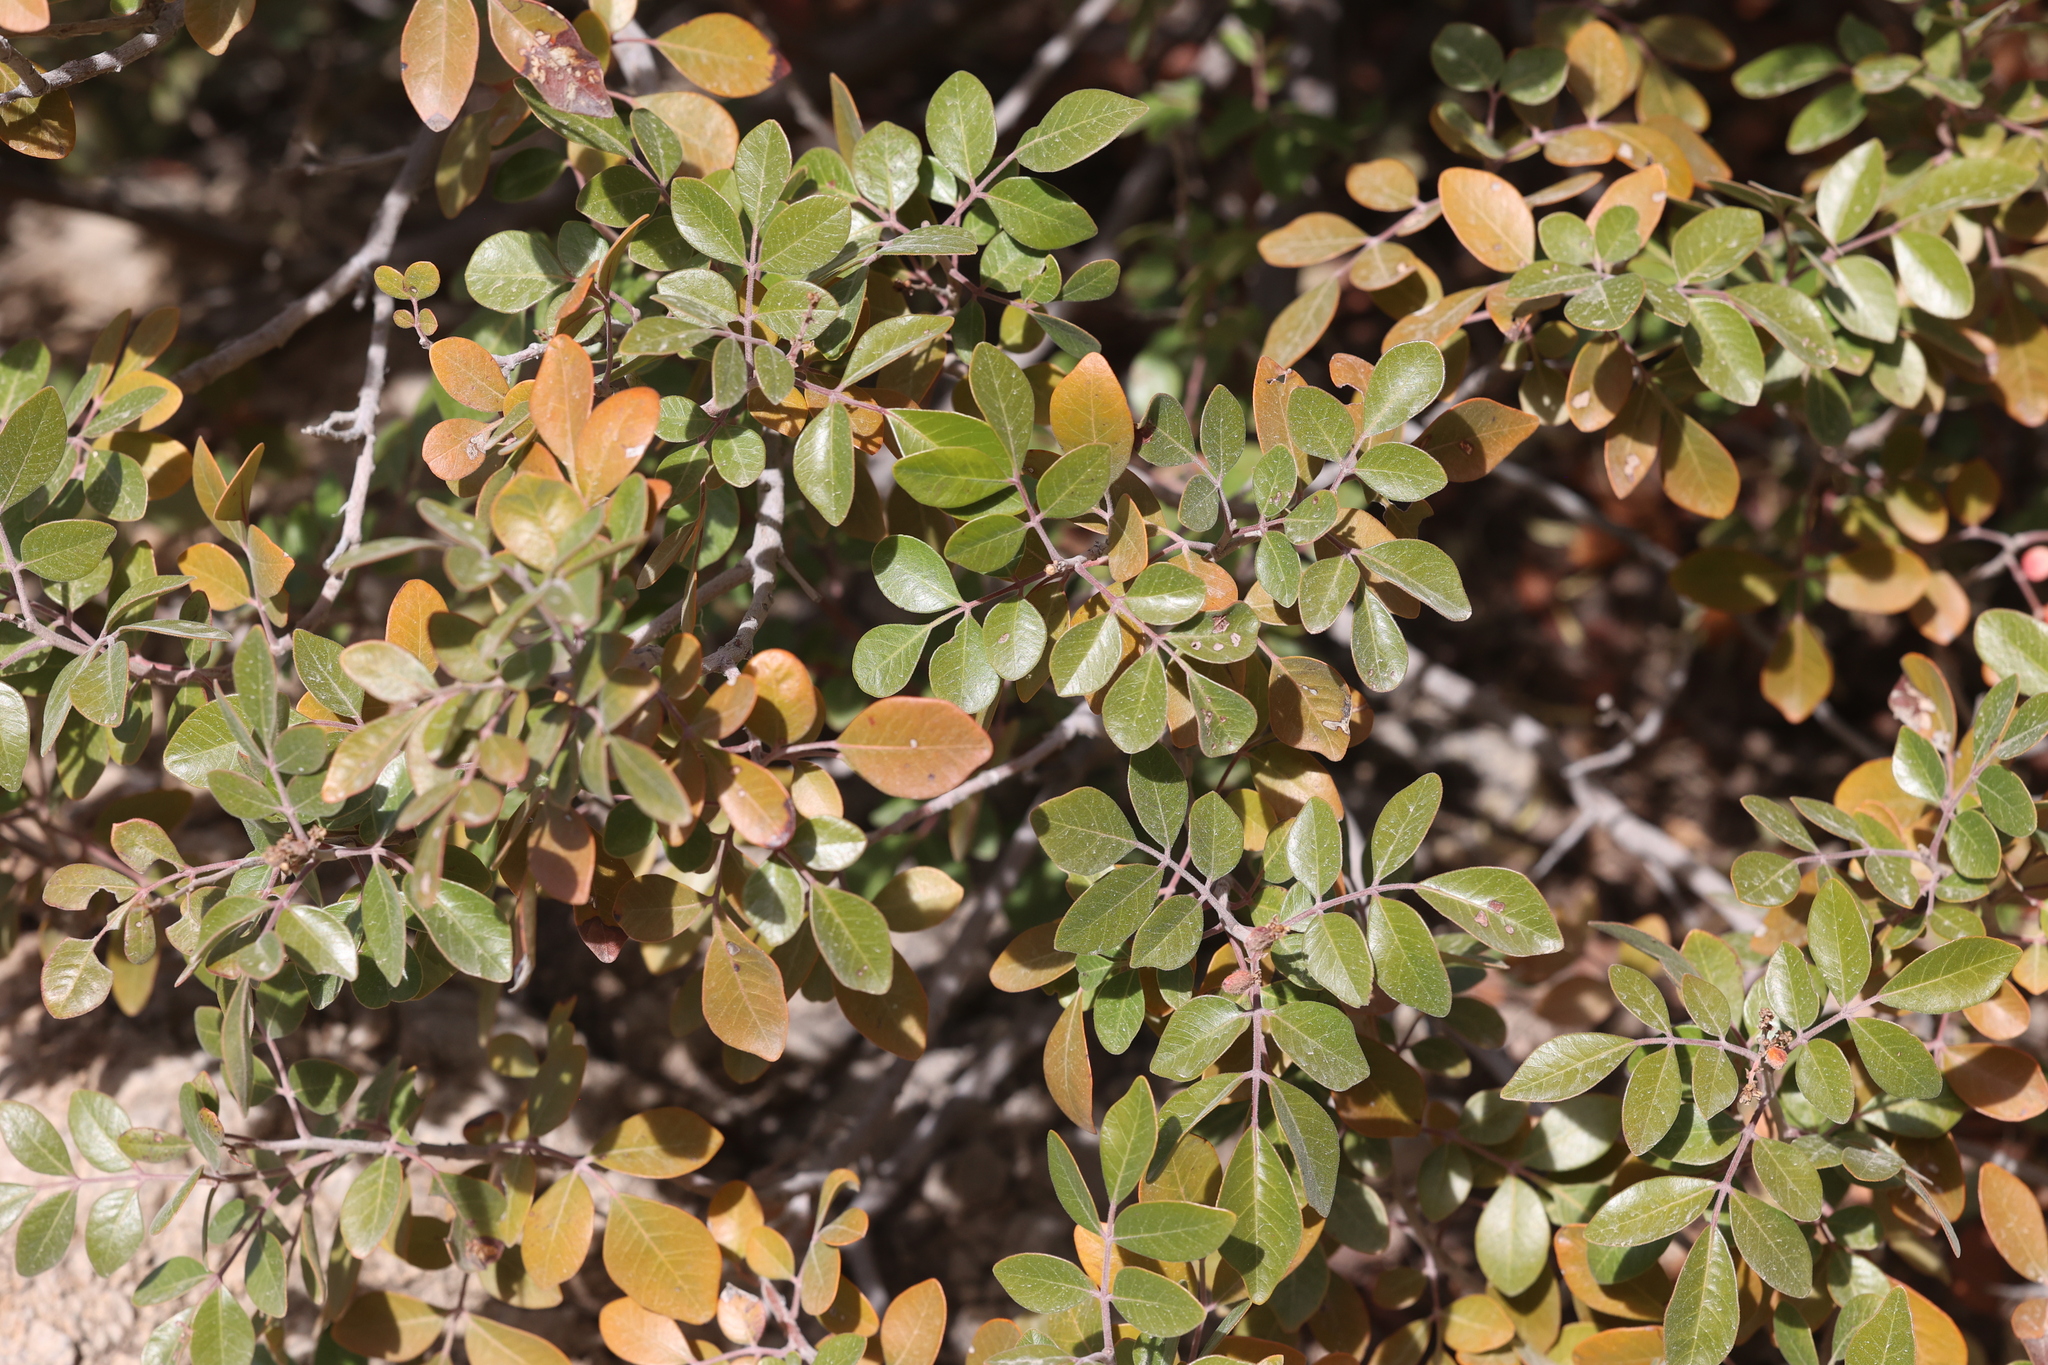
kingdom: Plantae
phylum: Tracheophyta
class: Magnoliopsida
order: Sapindales
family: Anacardiaceae
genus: Rhus
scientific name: Rhus virens
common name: Evergreen sumac
